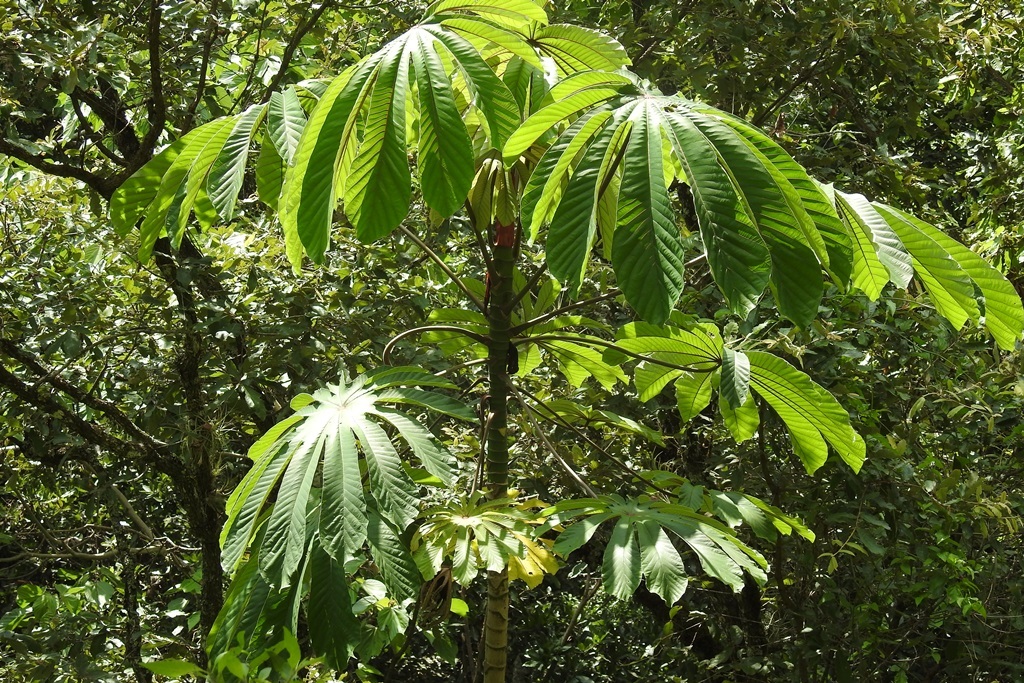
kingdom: Plantae
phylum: Tracheophyta
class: Magnoliopsida
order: Rosales
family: Urticaceae
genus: Cecropia
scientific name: Cecropia obtusifolia
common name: Trumpet tree
